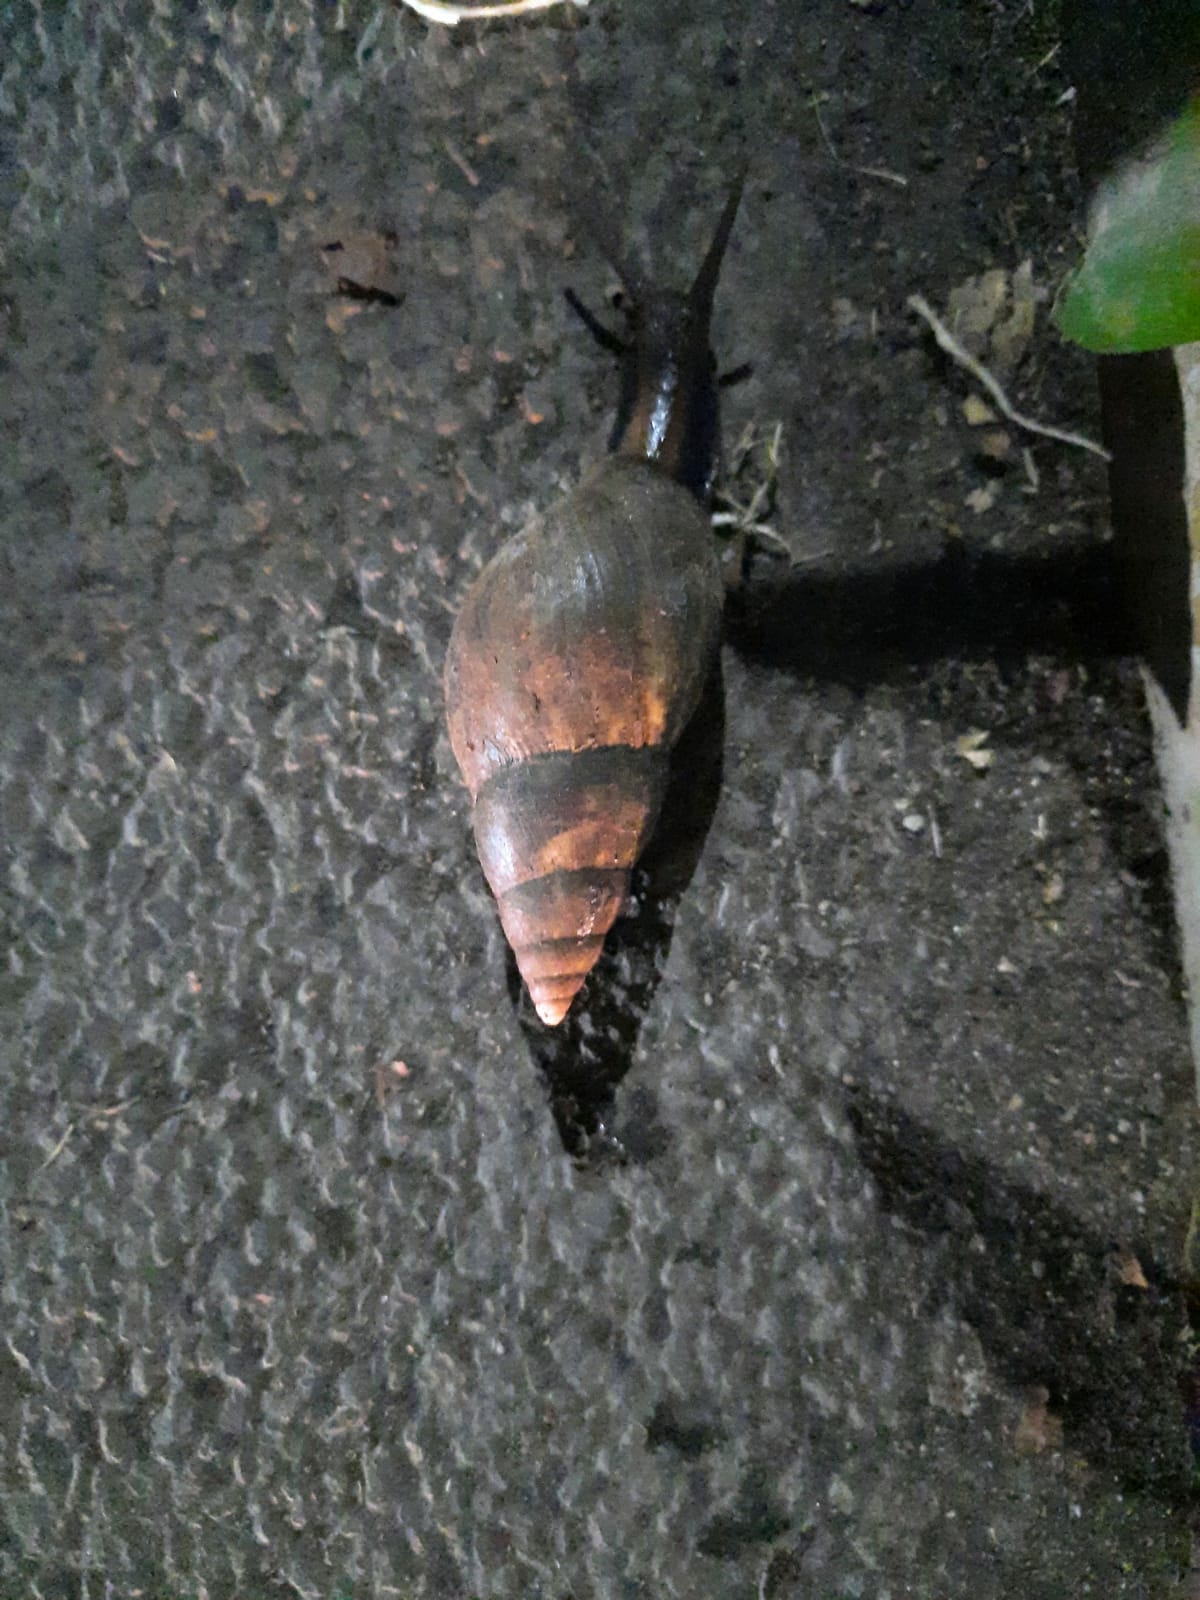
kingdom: Animalia
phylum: Mollusca
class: Gastropoda
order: Stylommatophora
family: Achatinidae
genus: Lissachatina
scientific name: Lissachatina fulica
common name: Giant african snail
